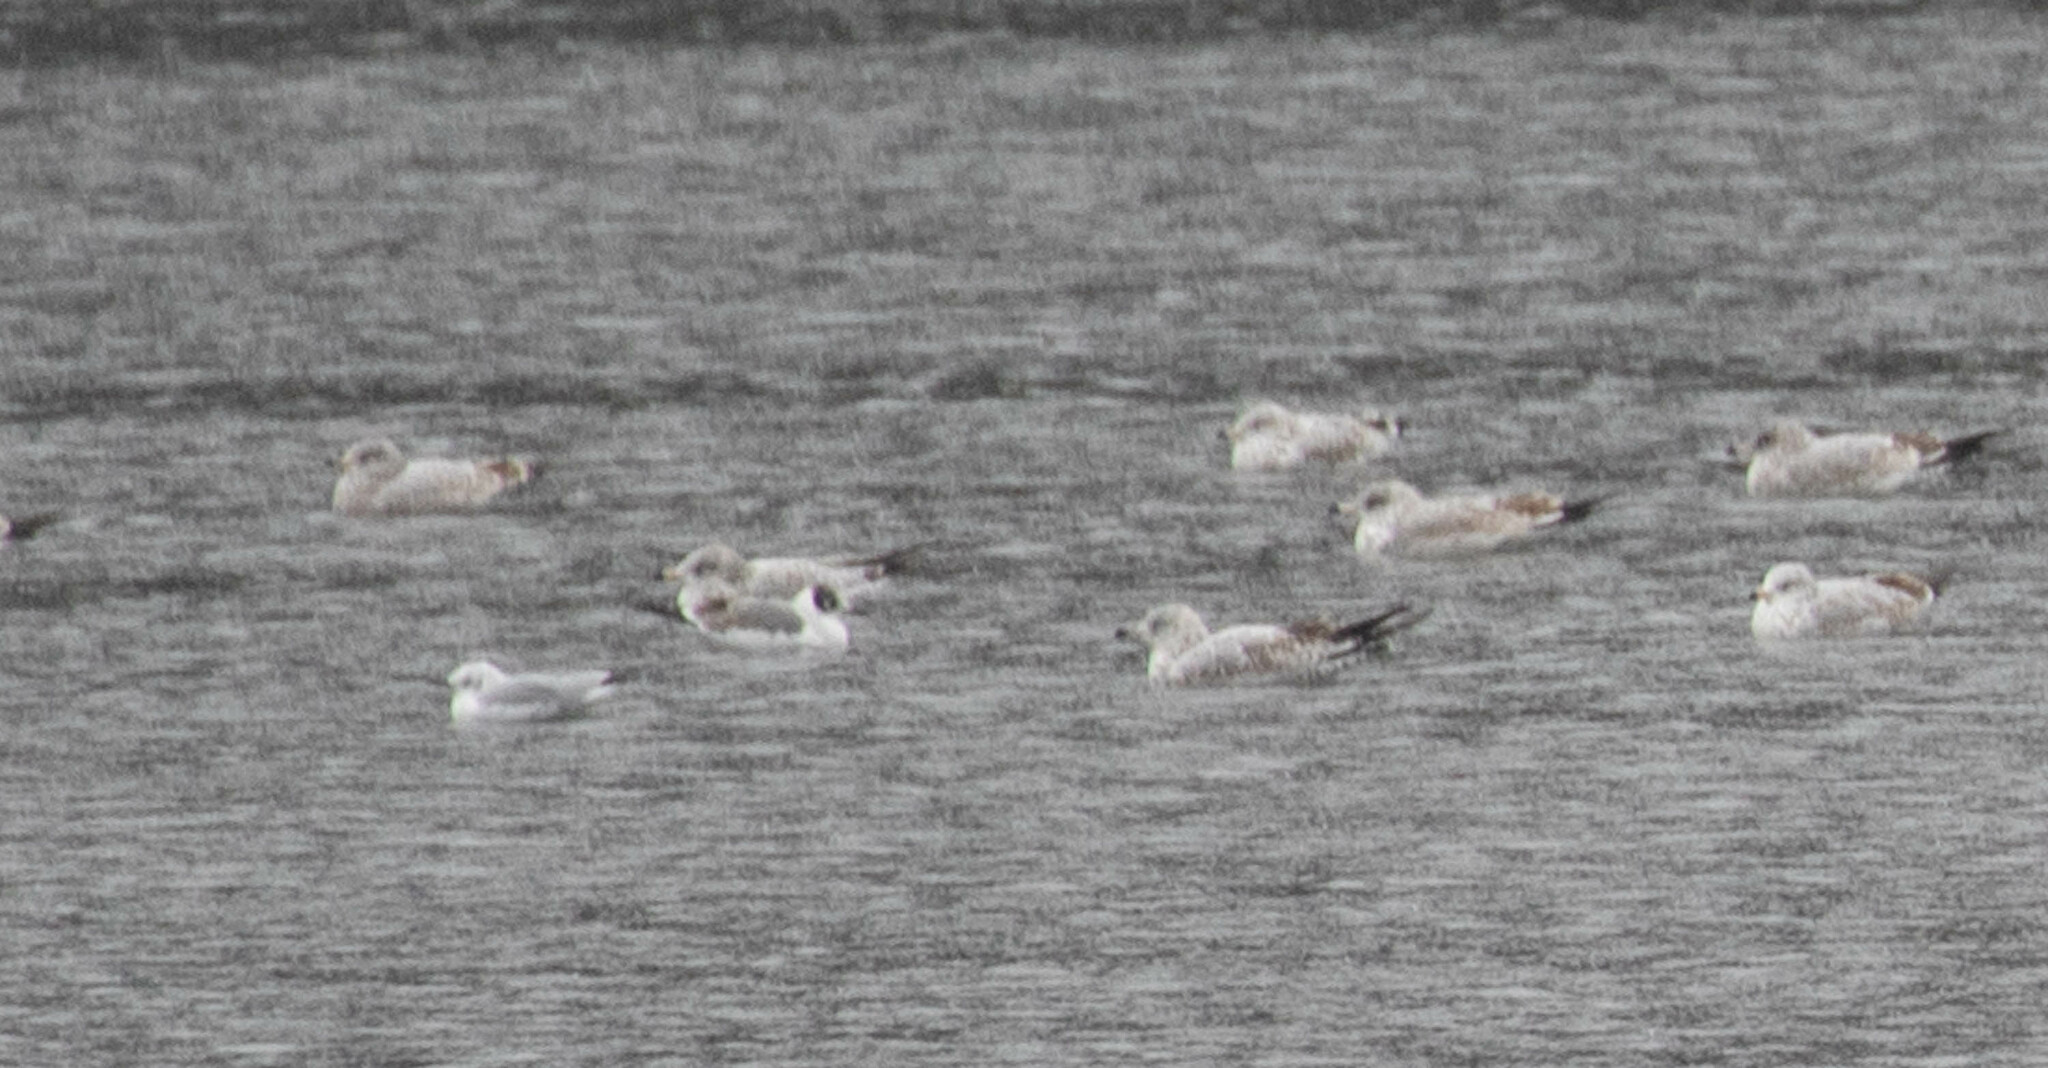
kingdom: Animalia
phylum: Chordata
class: Aves
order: Charadriiformes
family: Laridae
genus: Larus
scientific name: Larus delawarensis
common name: Ring-billed gull
